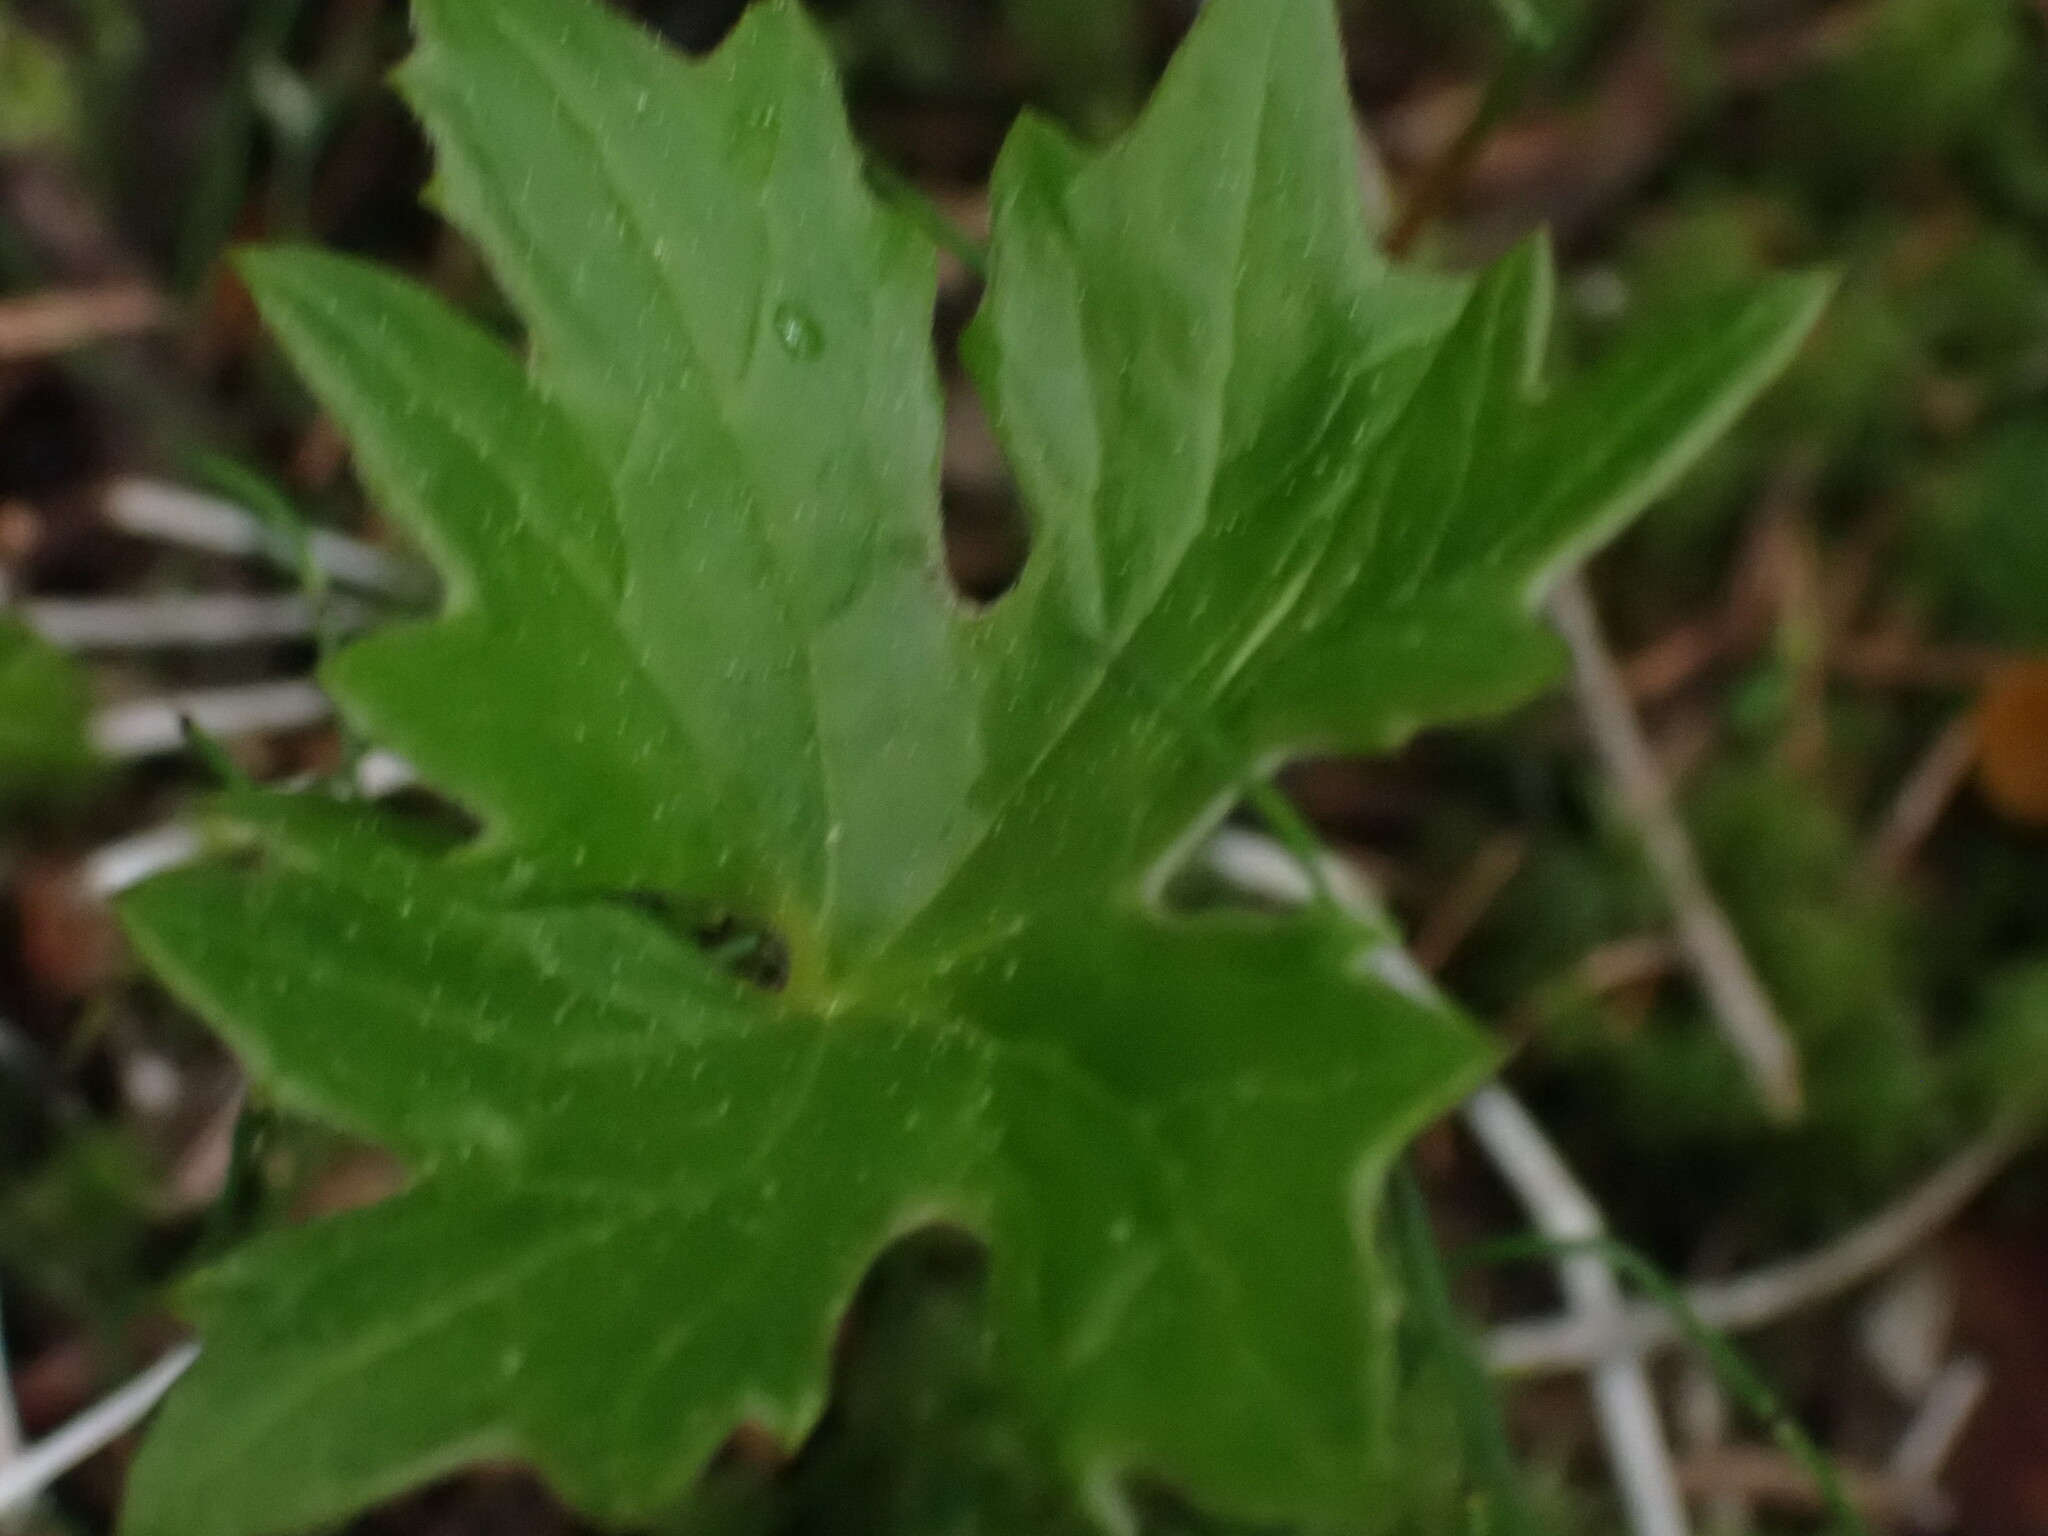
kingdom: Plantae
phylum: Tracheophyta
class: Magnoliopsida
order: Asterales
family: Asteraceae
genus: Petasites
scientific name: Petasites frigidus
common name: Arctic butterbur
